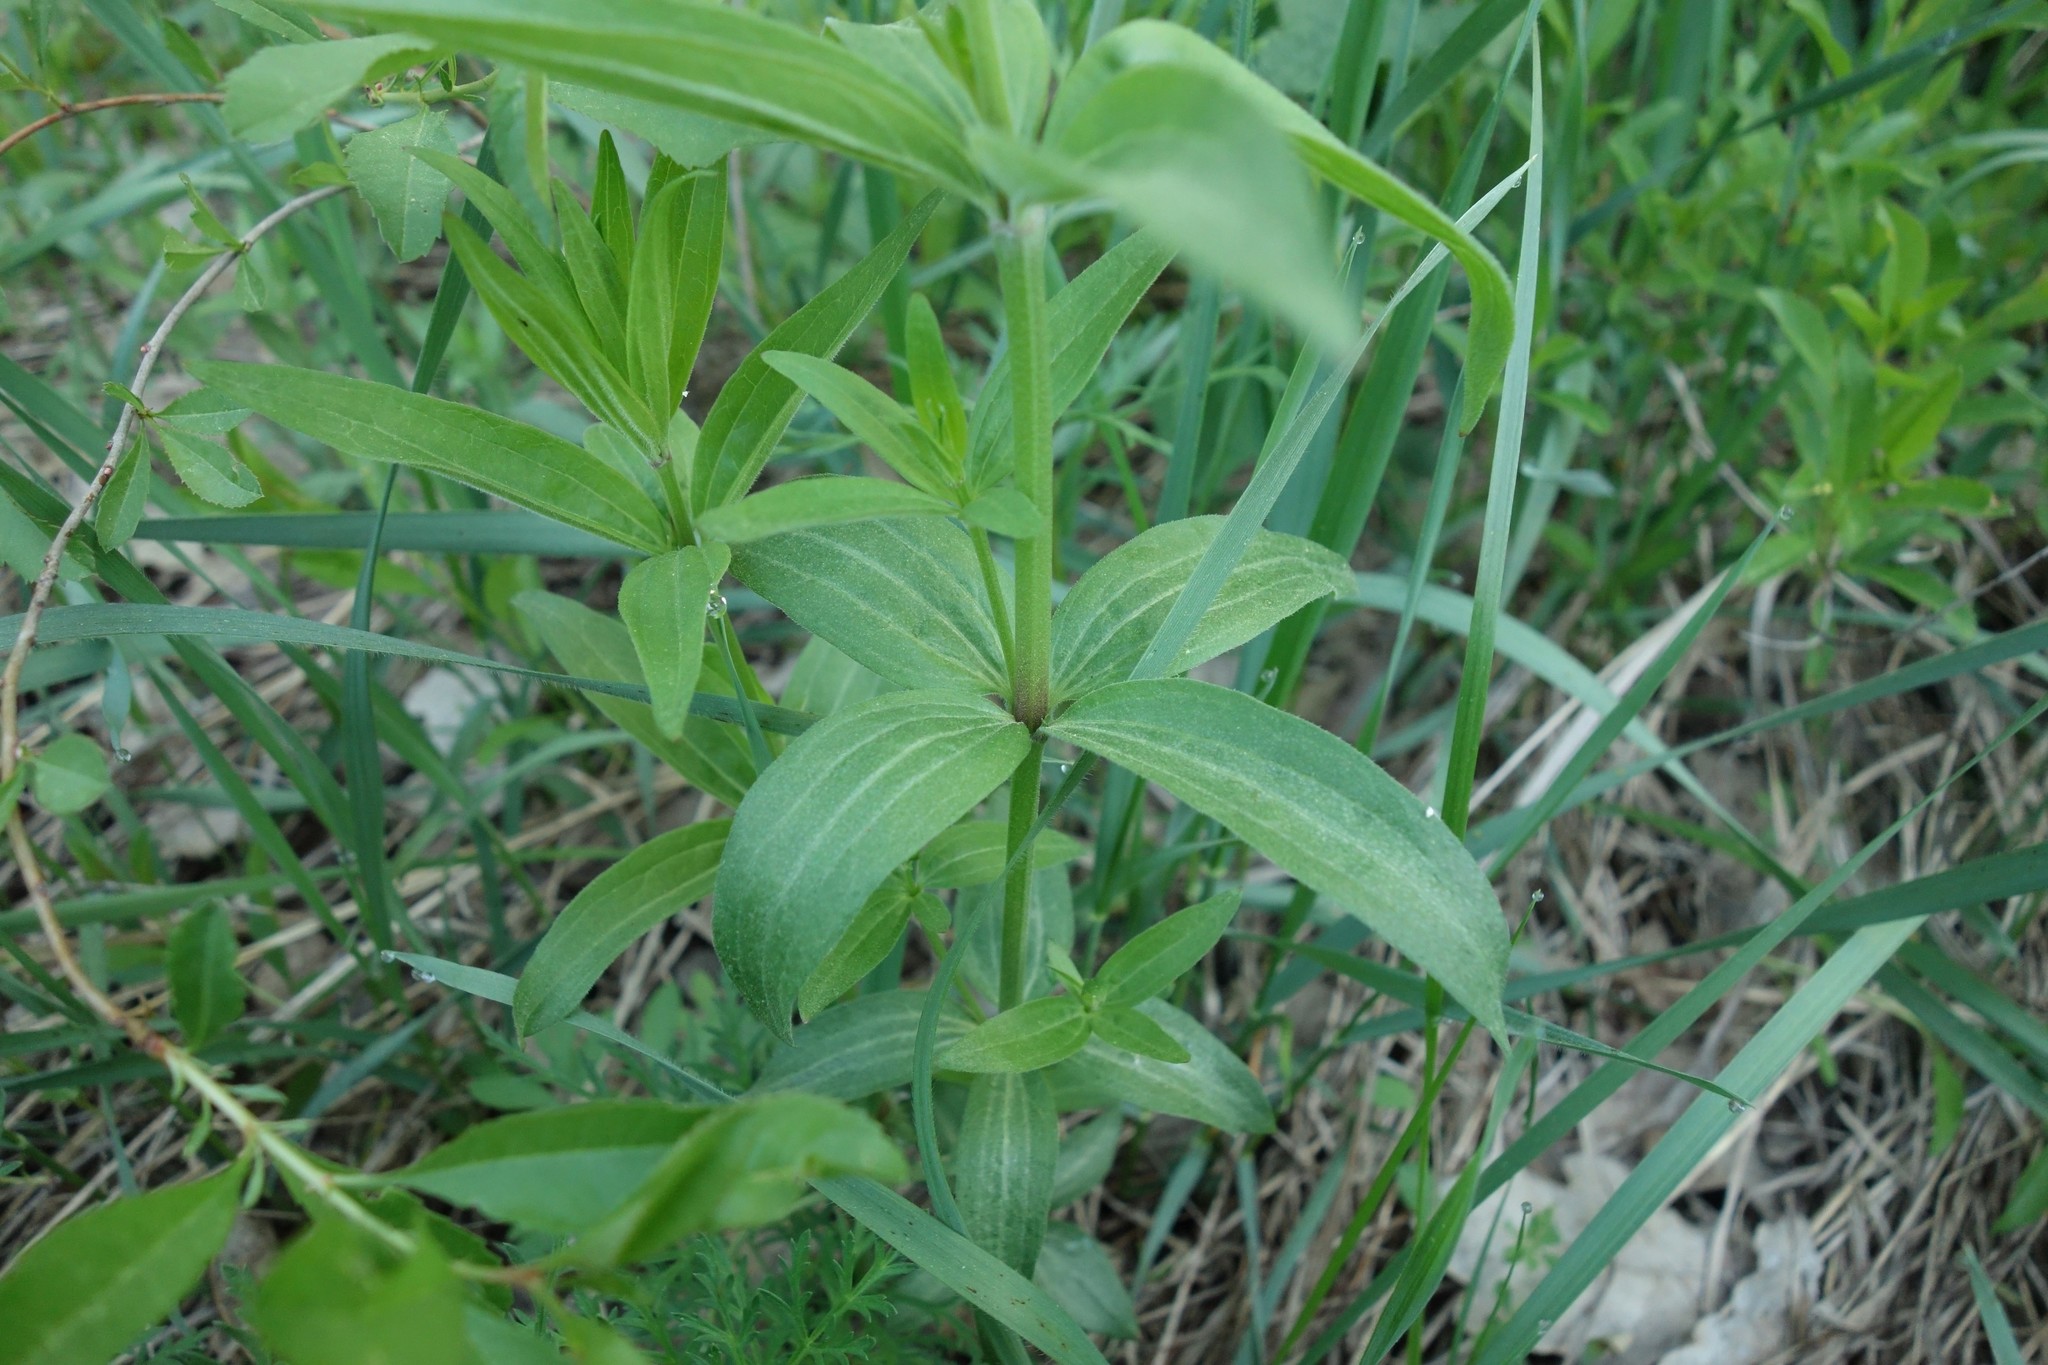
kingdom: Plantae
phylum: Tracheophyta
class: Magnoliopsida
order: Gentianales
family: Rubiaceae
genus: Galium
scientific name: Galium rubioides
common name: European bedstraw
